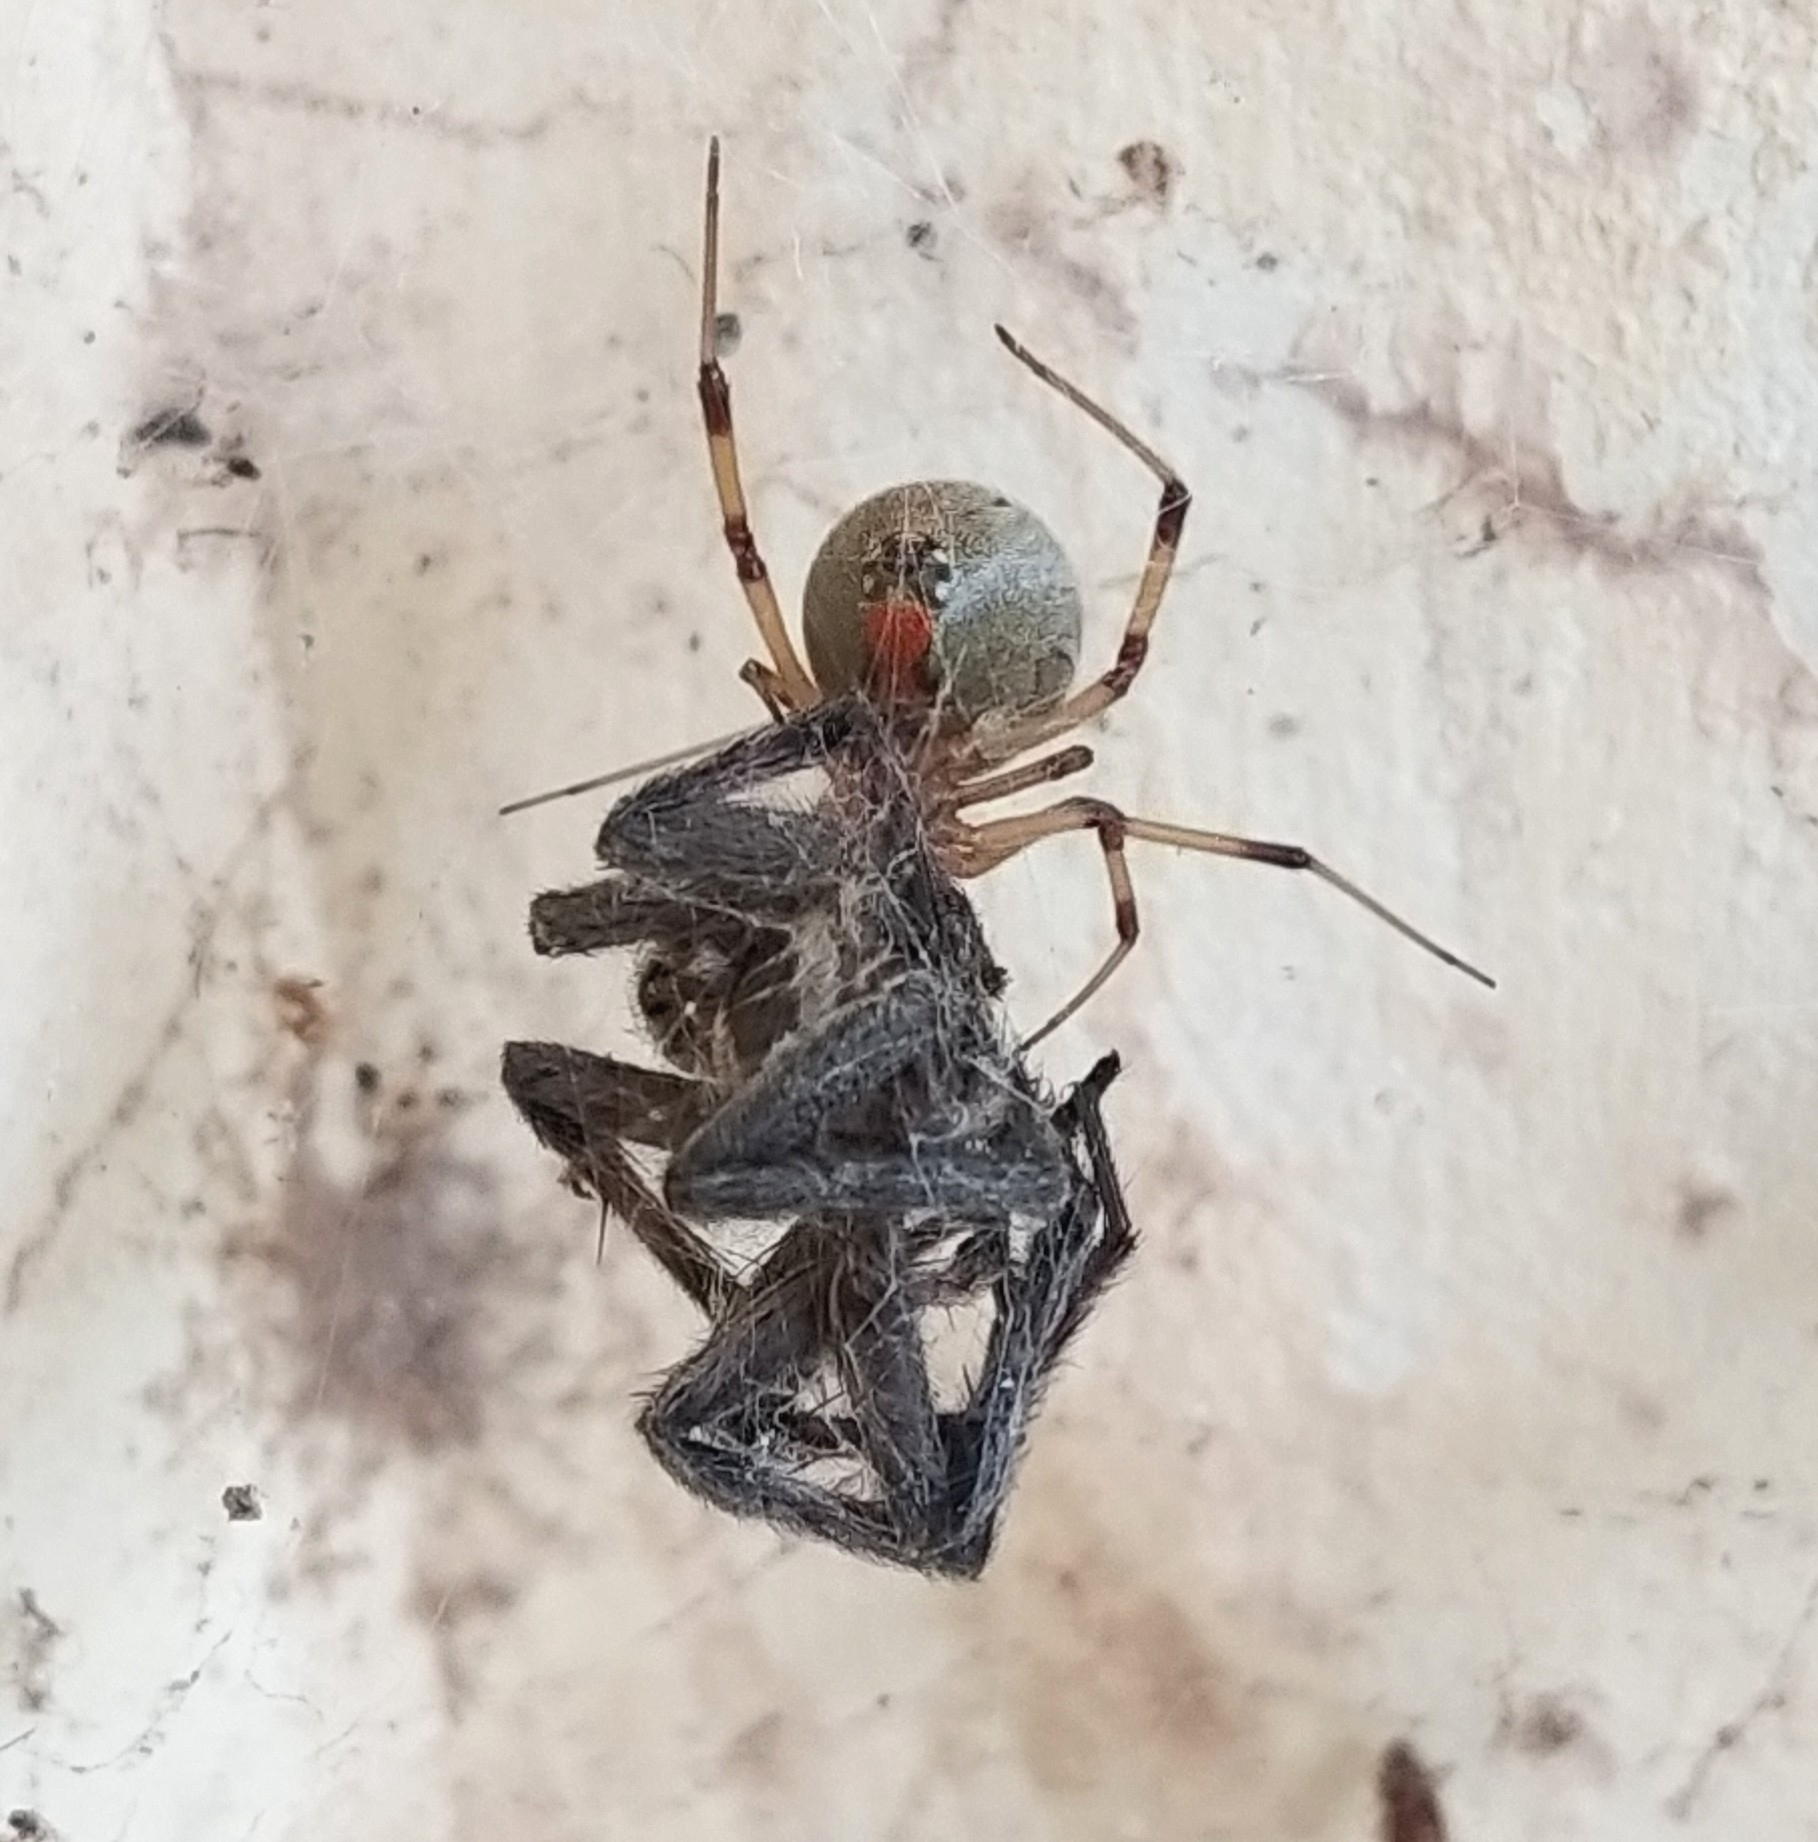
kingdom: Animalia
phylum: Arthropoda
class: Arachnida
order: Araneae
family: Theridiidae
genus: Latrodectus
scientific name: Latrodectus geometricus
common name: Brown widow spider
